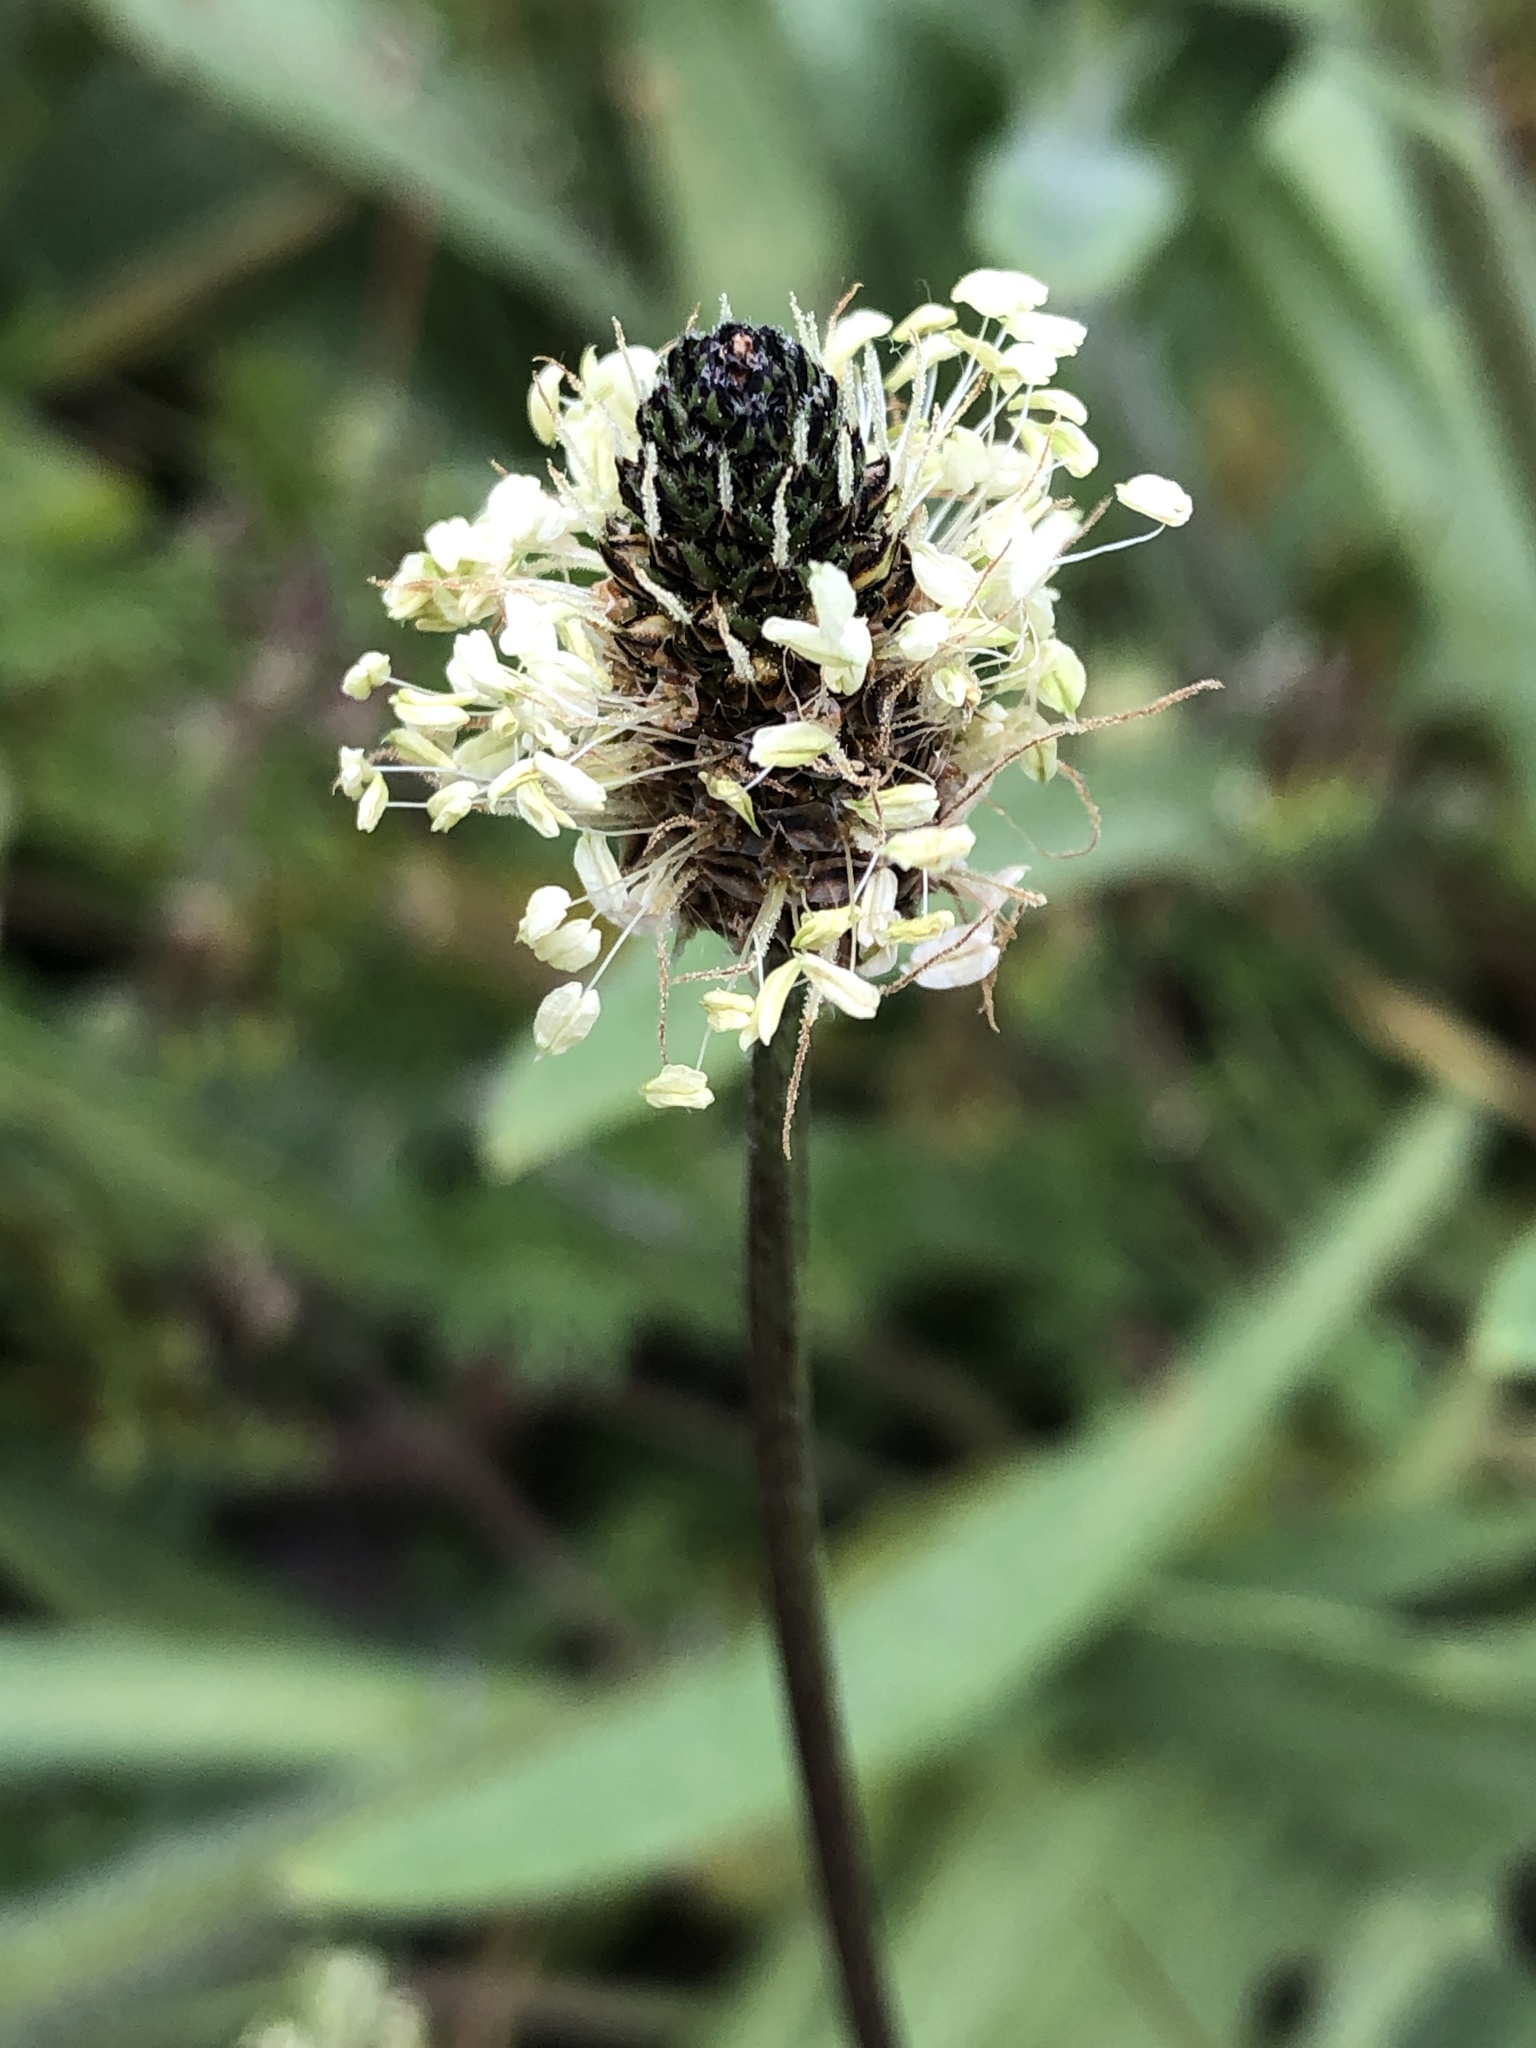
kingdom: Plantae
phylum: Tracheophyta
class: Magnoliopsida
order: Lamiales
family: Plantaginaceae
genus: Plantago
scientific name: Plantago lanceolata
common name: Ribwort plantain
